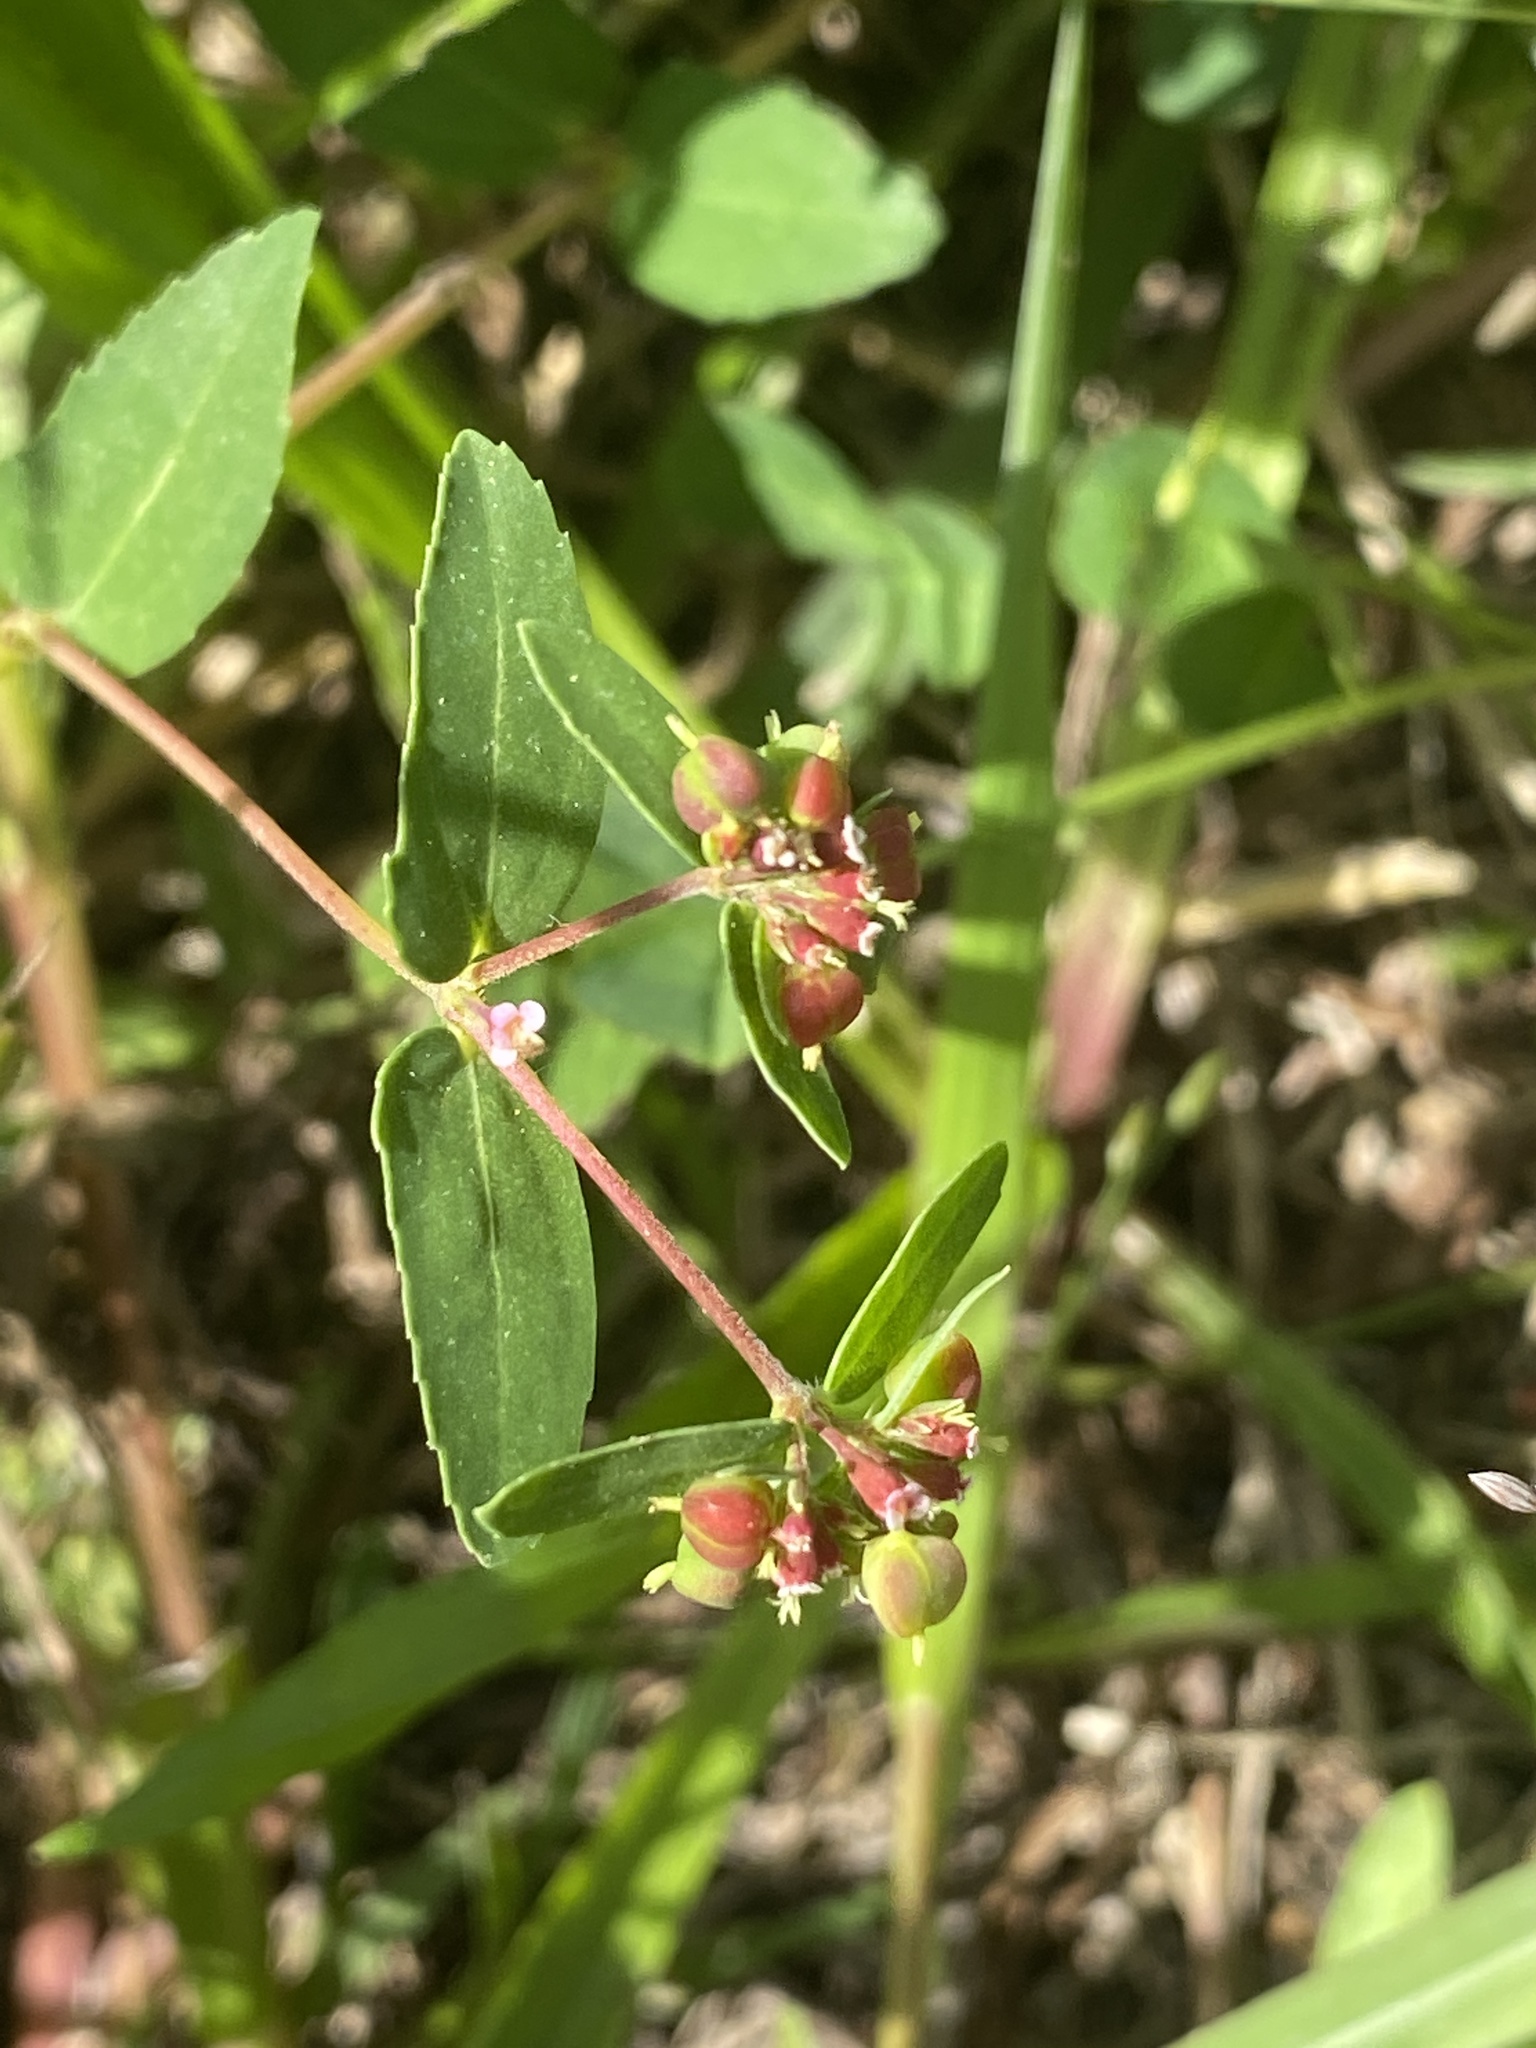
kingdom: Plantae
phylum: Tracheophyta
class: Magnoliopsida
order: Malpighiales
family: Euphorbiaceae
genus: Euphorbia
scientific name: Euphorbia nutans
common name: Eyebane
